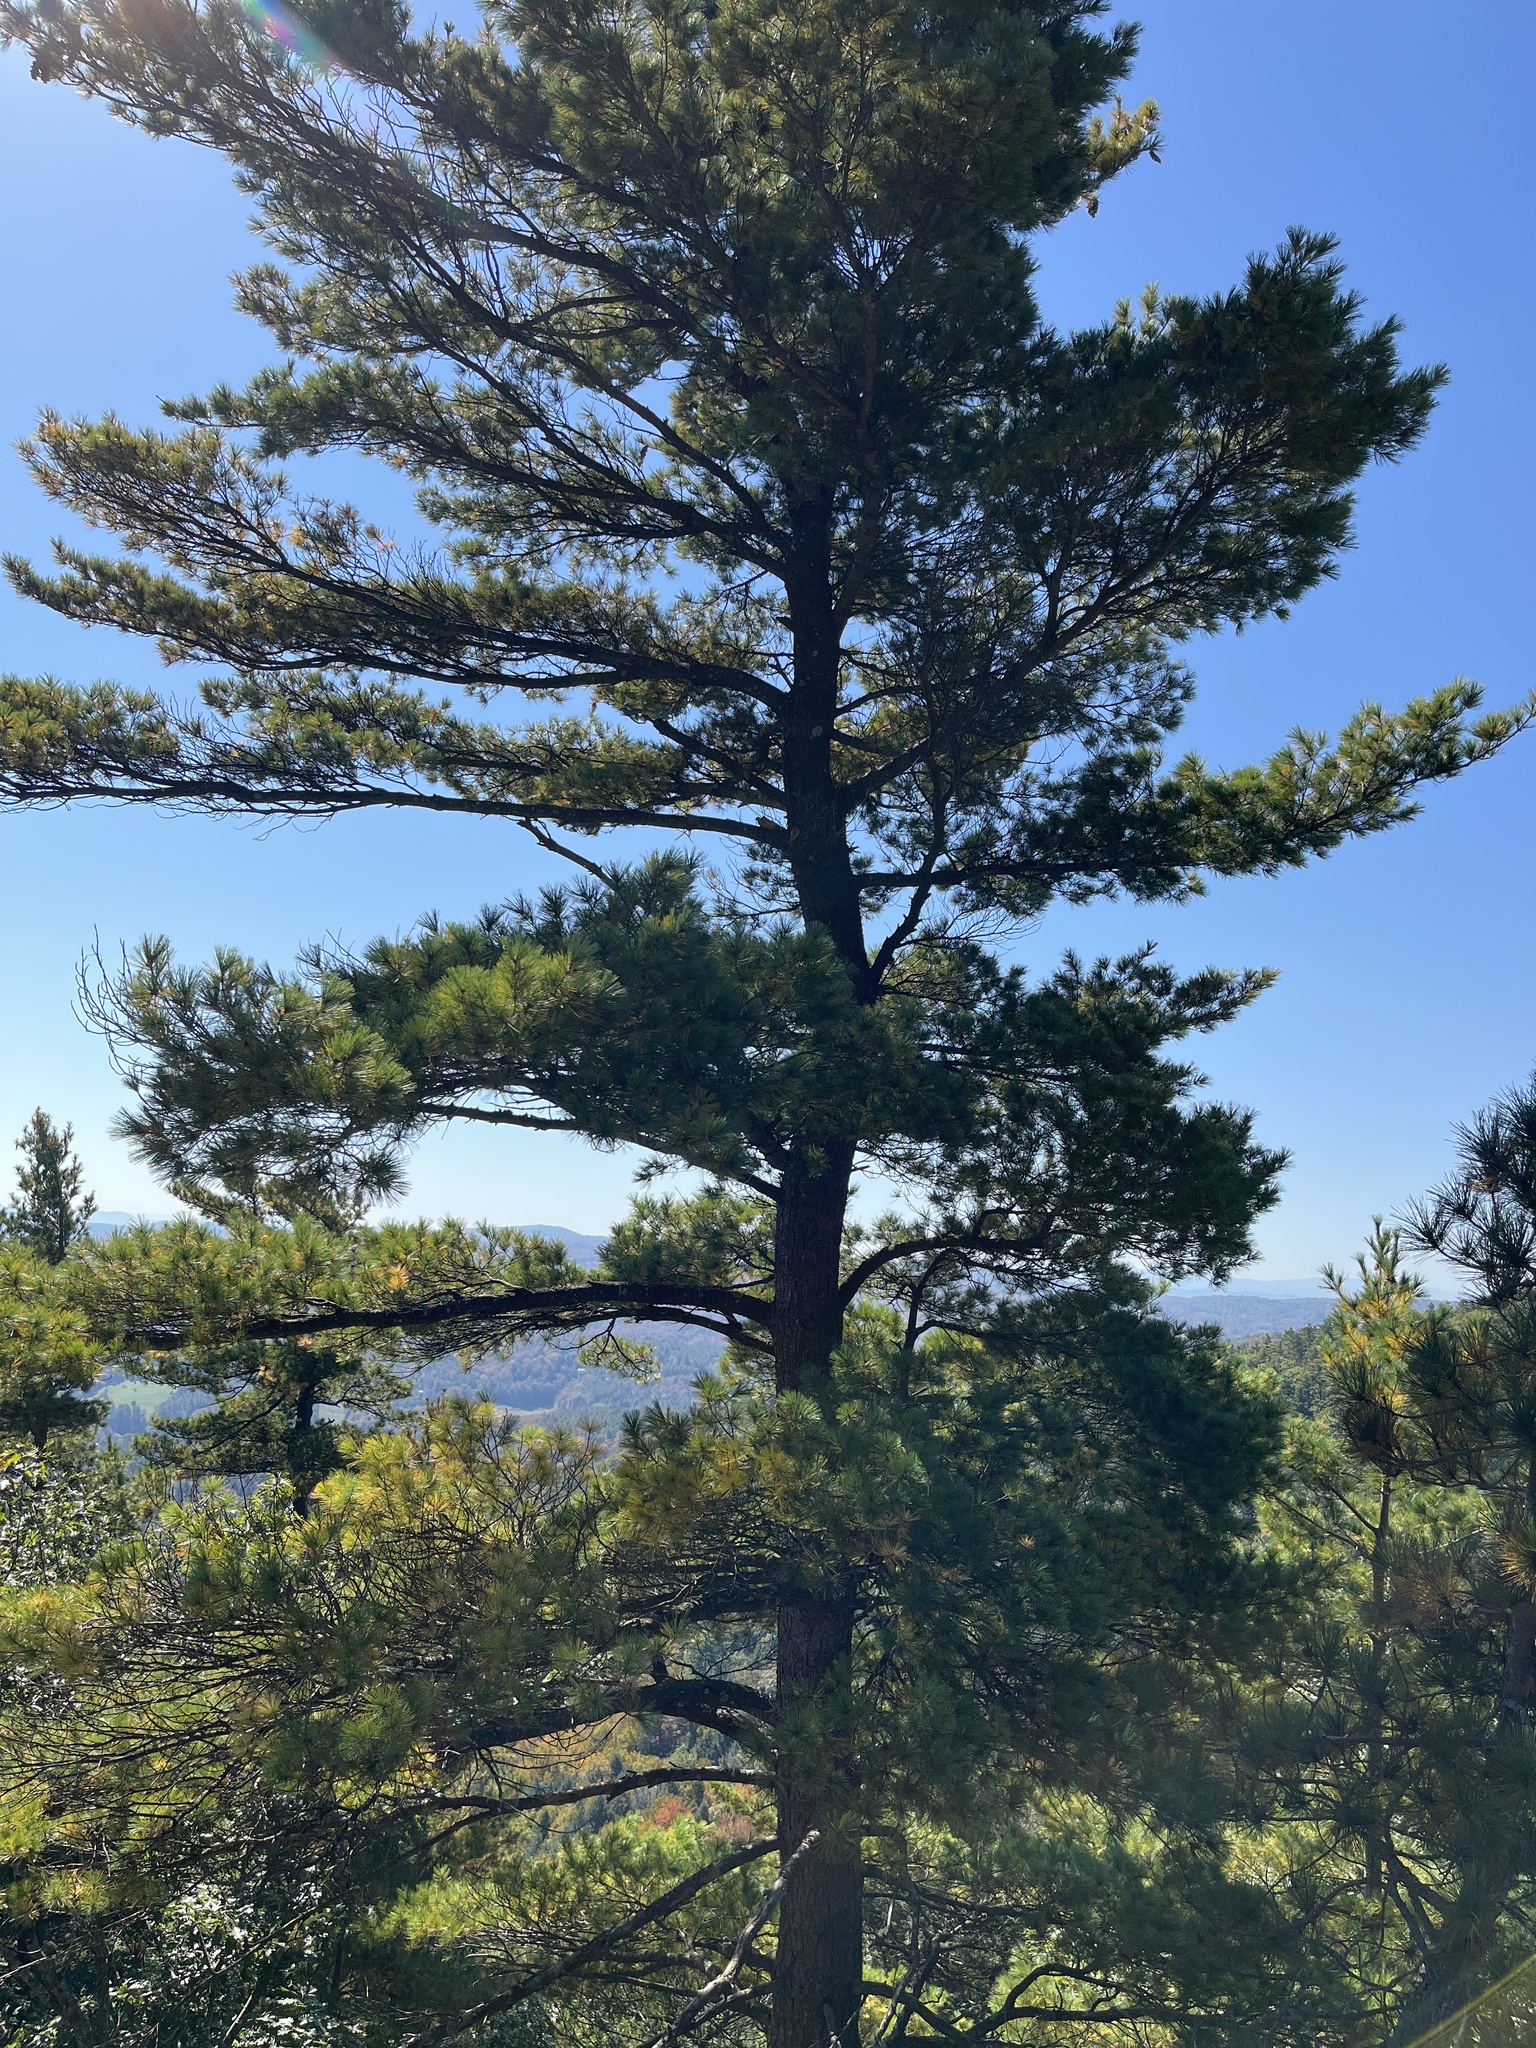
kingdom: Plantae
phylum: Tracheophyta
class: Pinopsida
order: Pinales
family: Pinaceae
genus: Pinus
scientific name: Pinus strobus
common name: Weymouth pine
